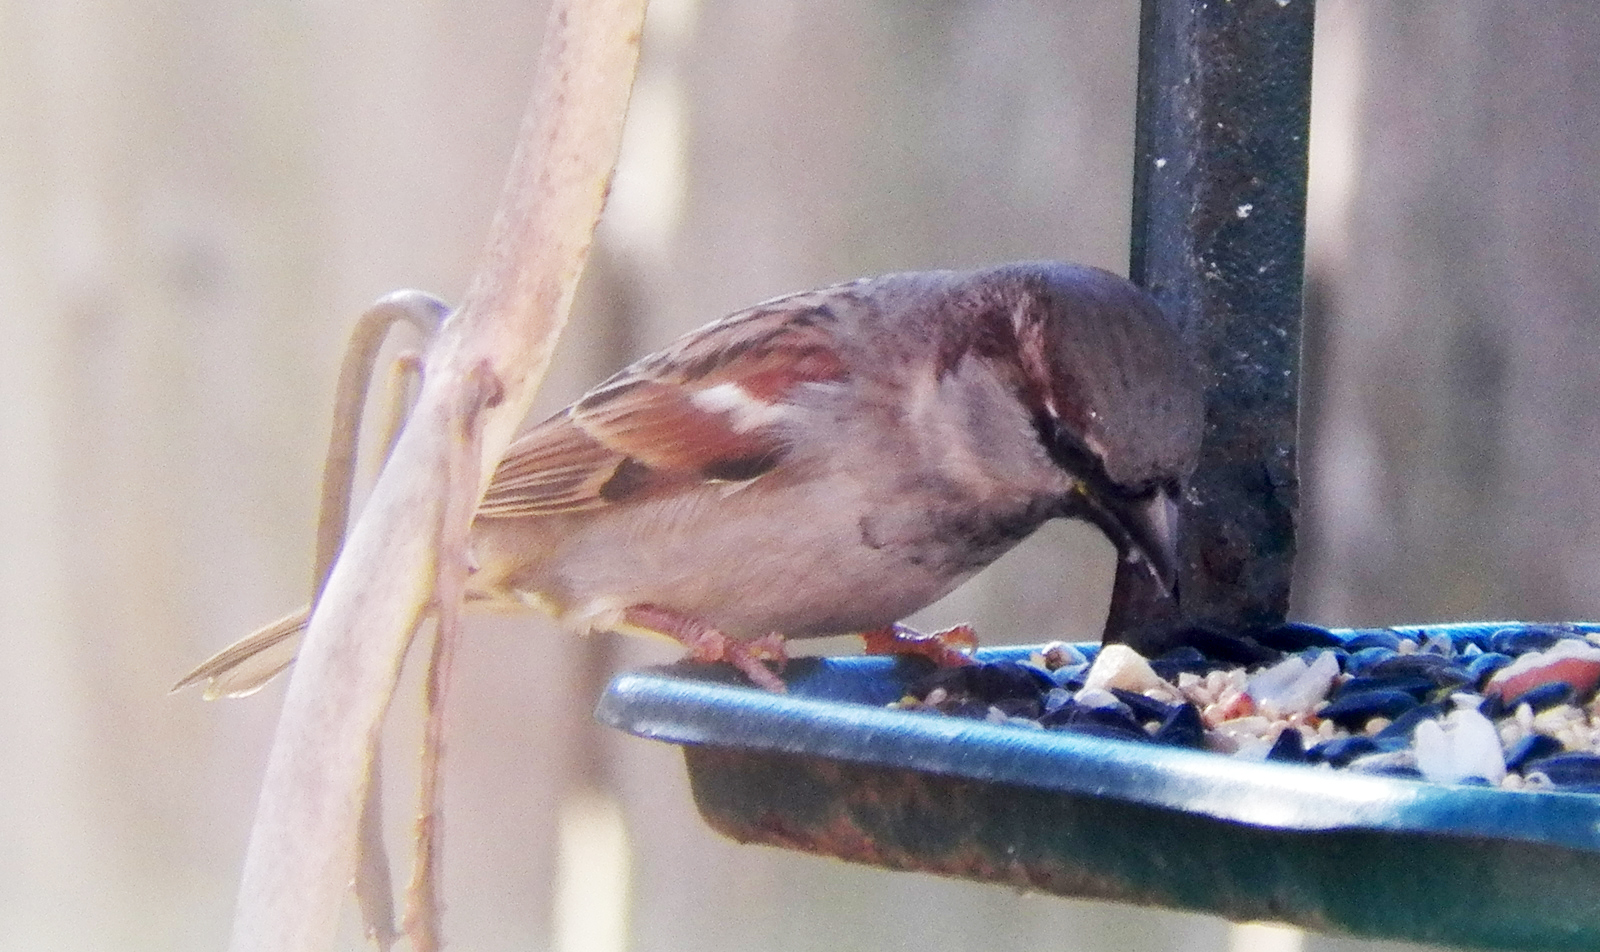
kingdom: Animalia
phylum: Chordata
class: Aves
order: Passeriformes
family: Passeridae
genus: Passer
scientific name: Passer domesticus
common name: House sparrow
